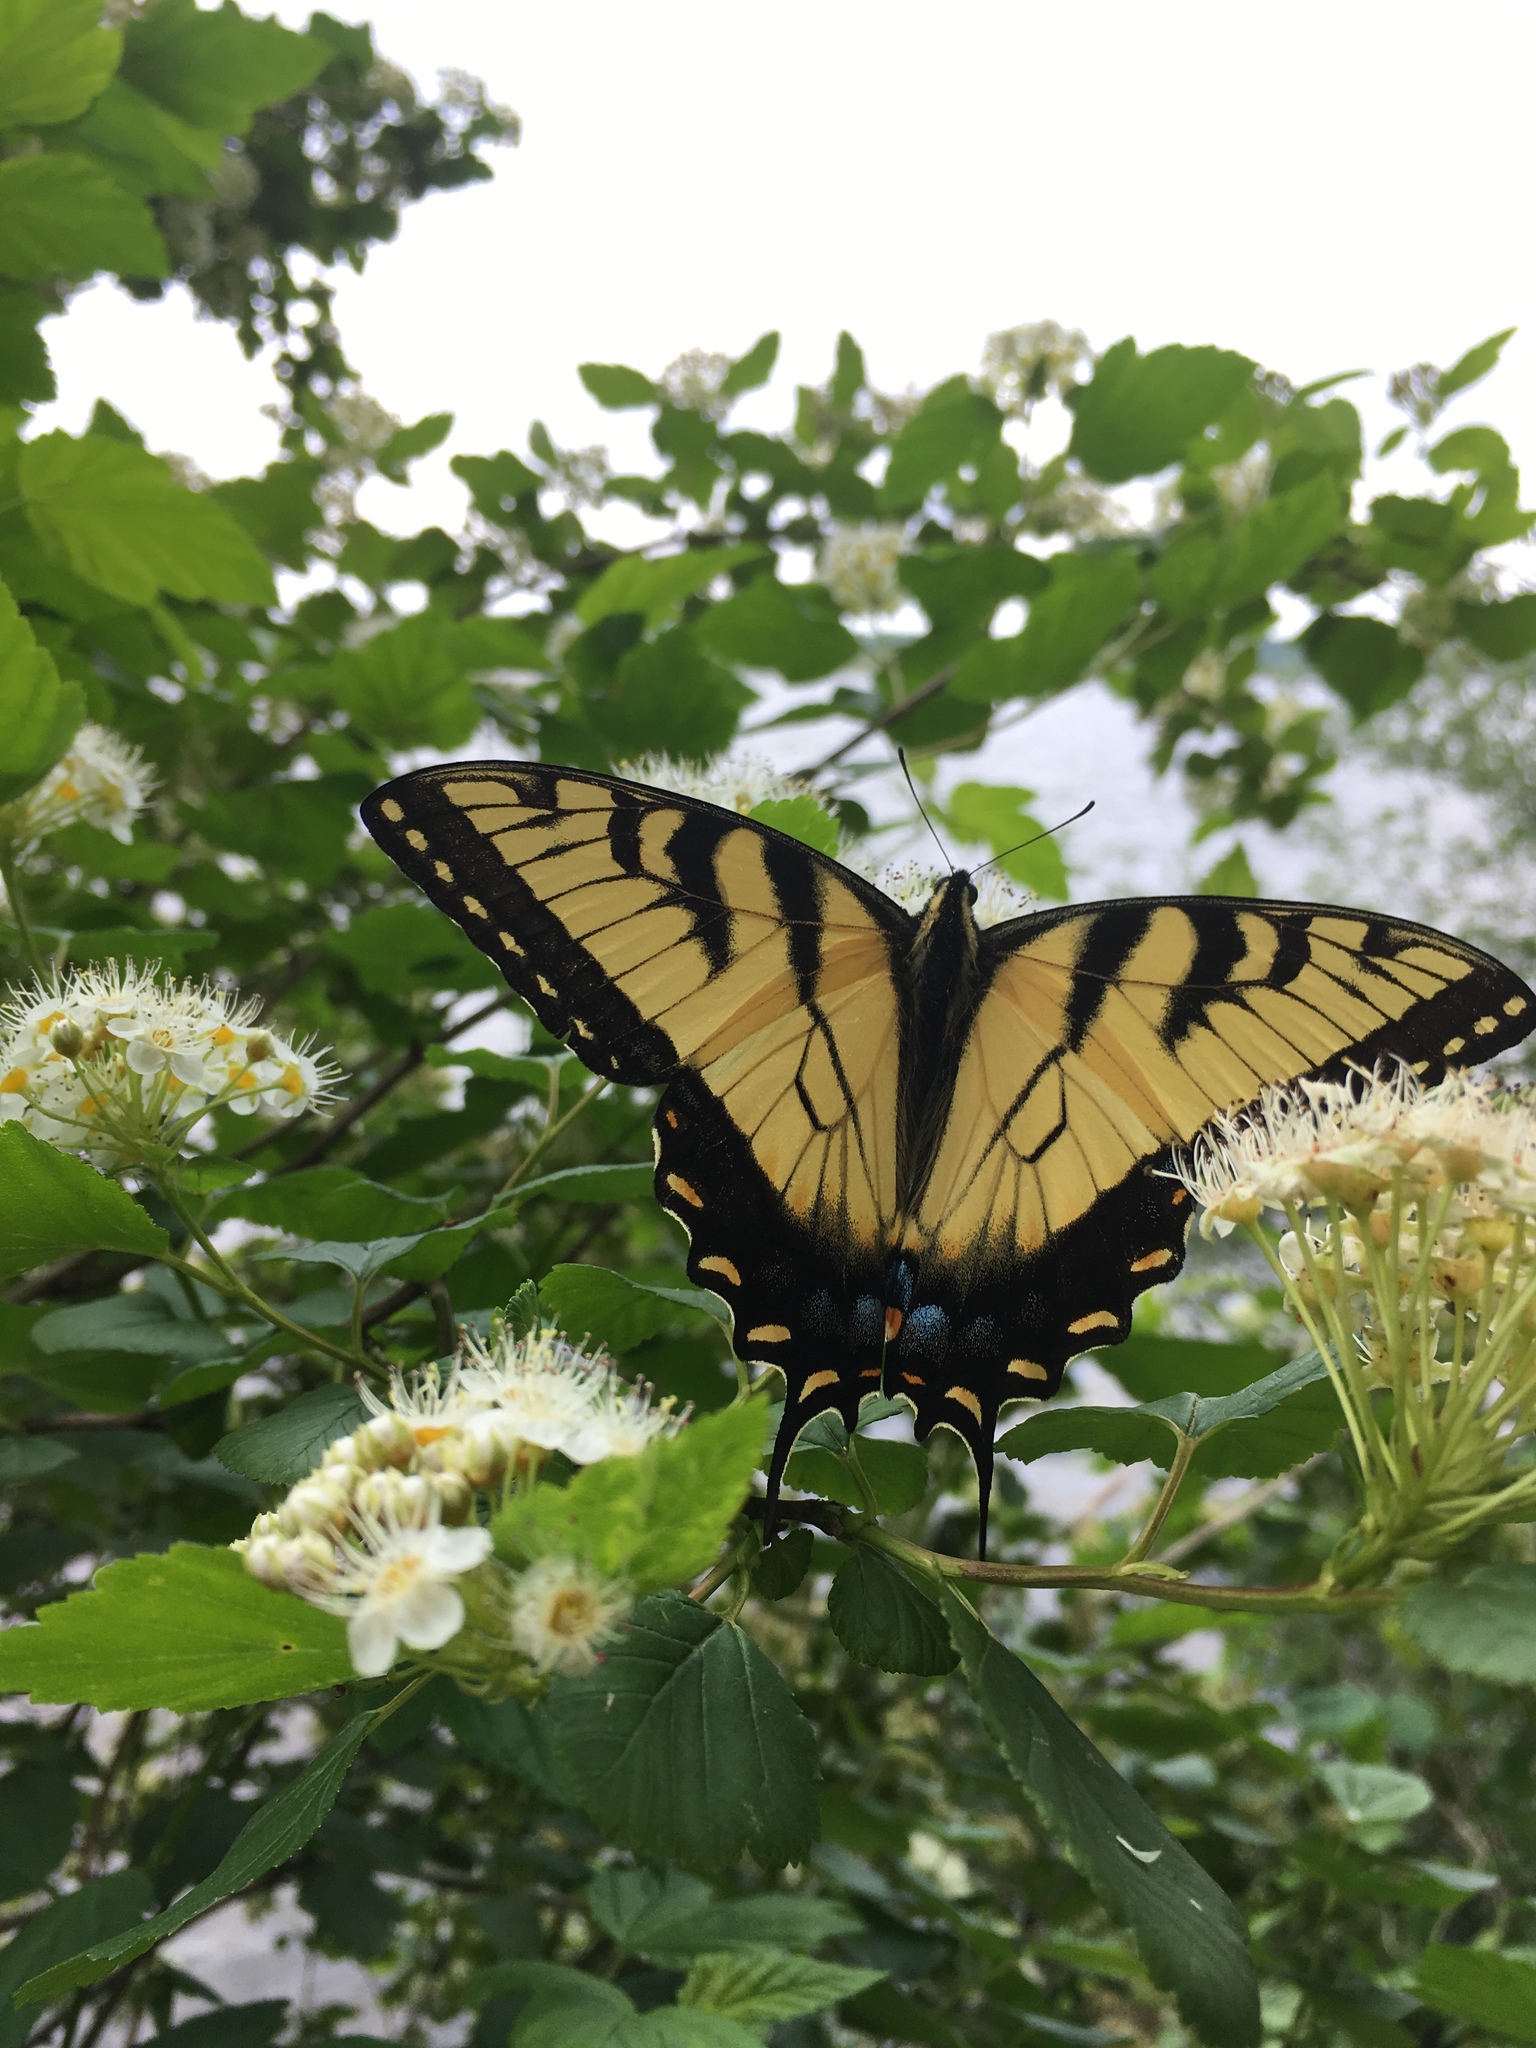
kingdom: Animalia
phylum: Arthropoda
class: Insecta
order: Lepidoptera
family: Papilionidae
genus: Papilio
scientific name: Papilio glaucus
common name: Tiger swallowtail
